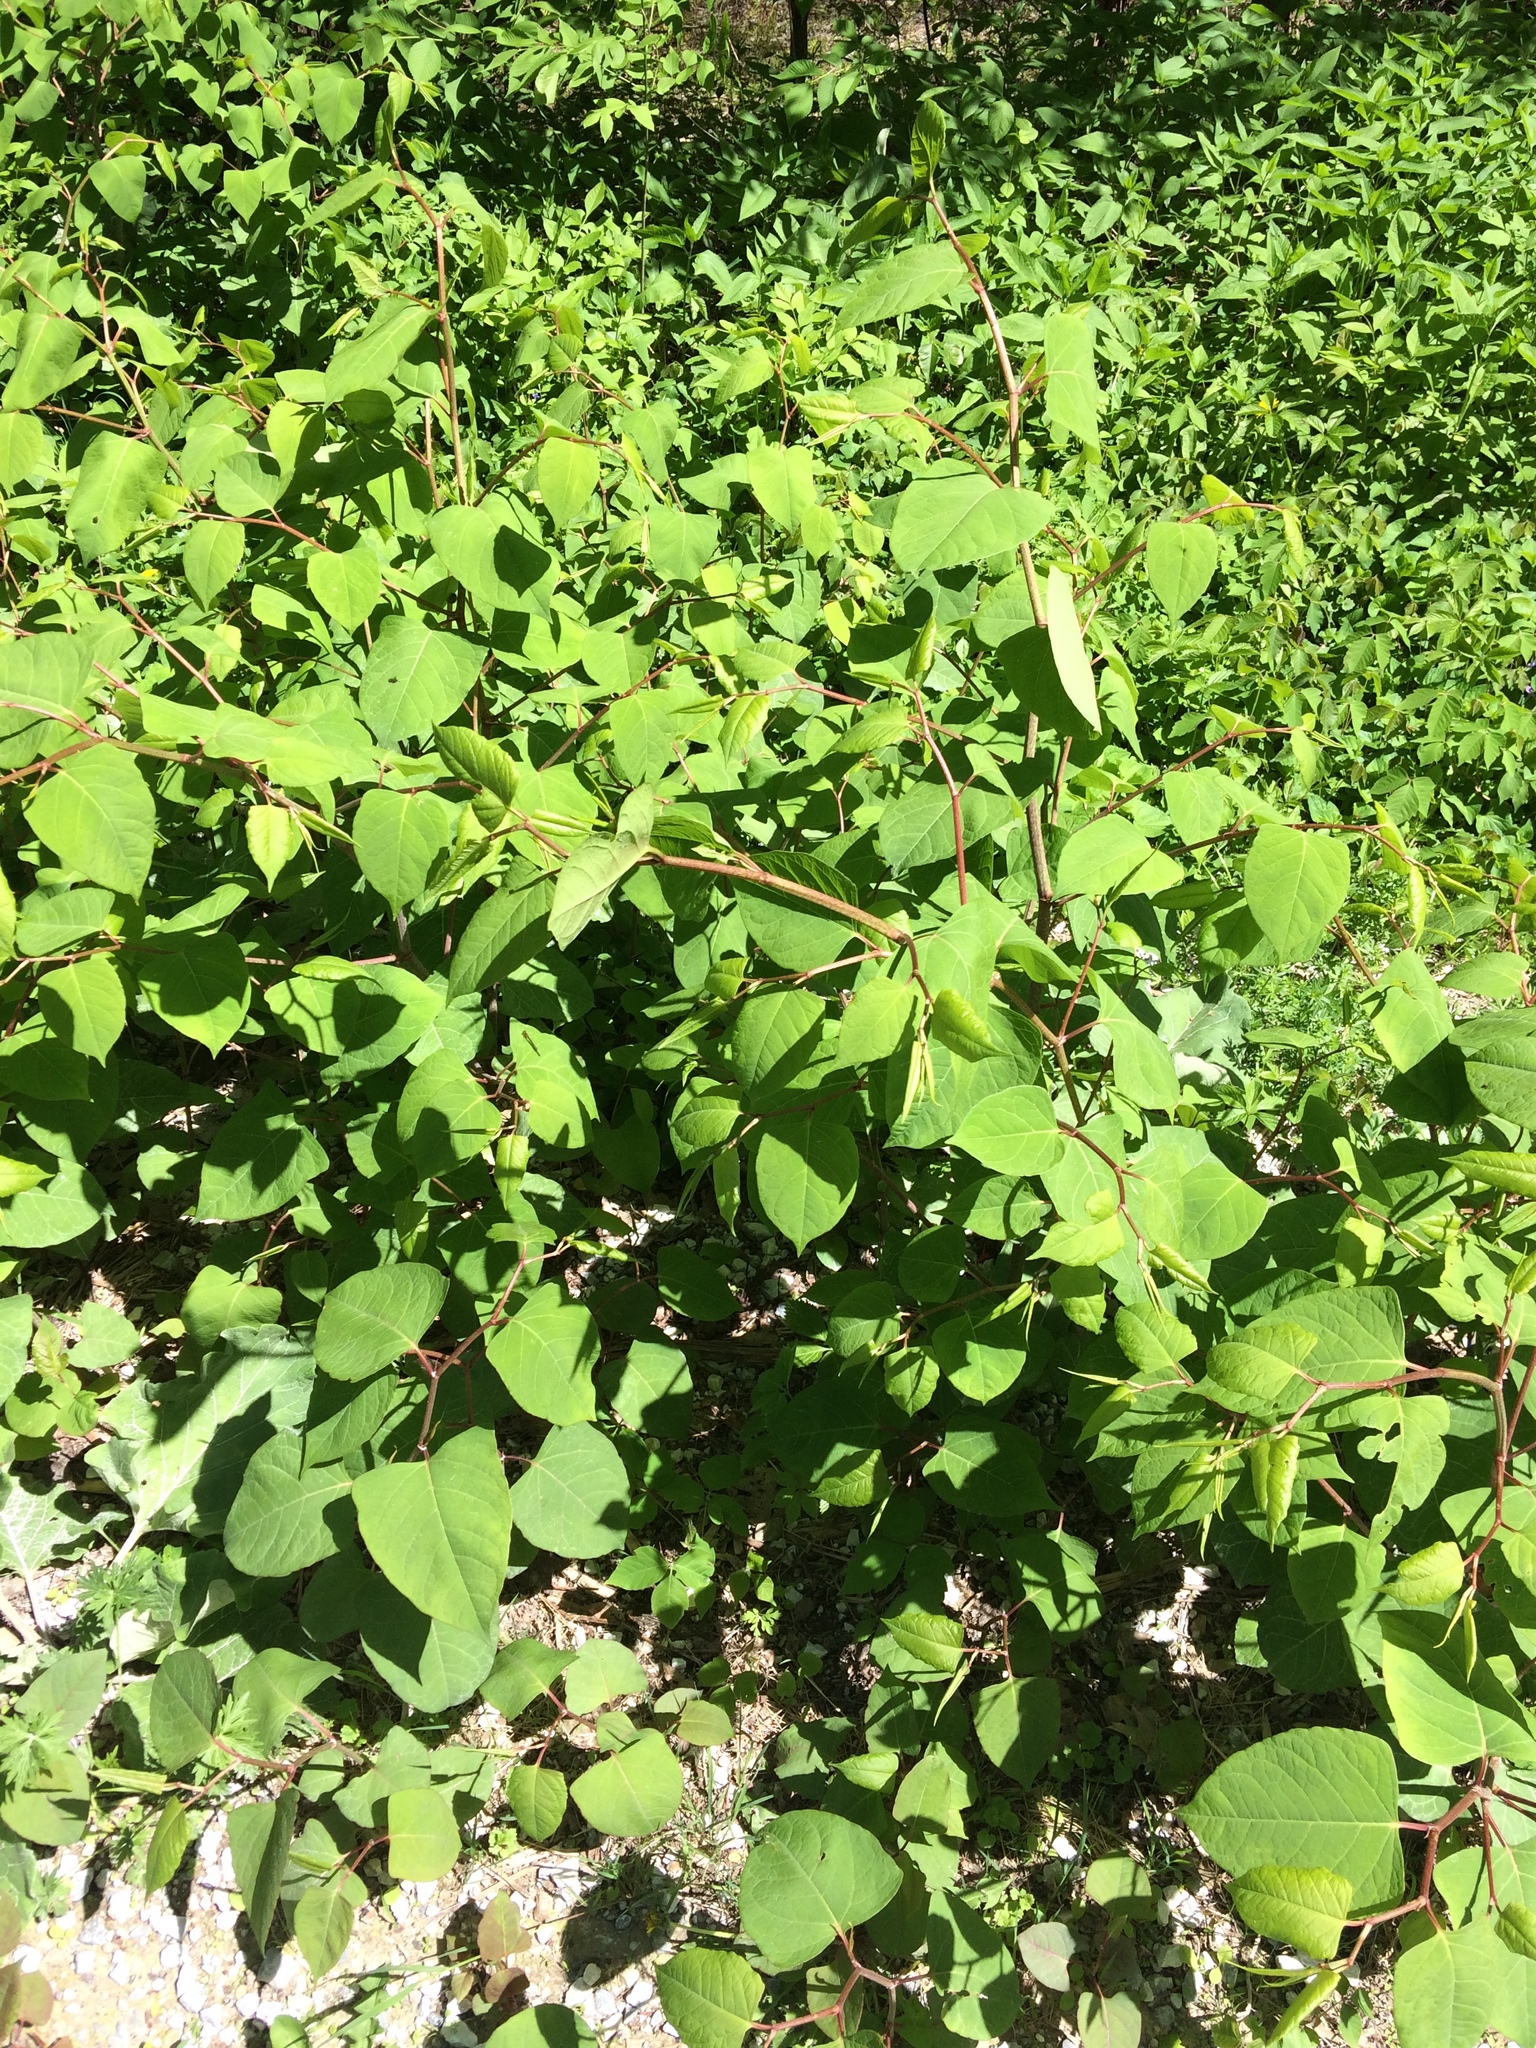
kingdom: Plantae
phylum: Tracheophyta
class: Magnoliopsida
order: Caryophyllales
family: Polygonaceae
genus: Reynoutria
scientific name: Reynoutria japonica
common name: Japanese knotweed
